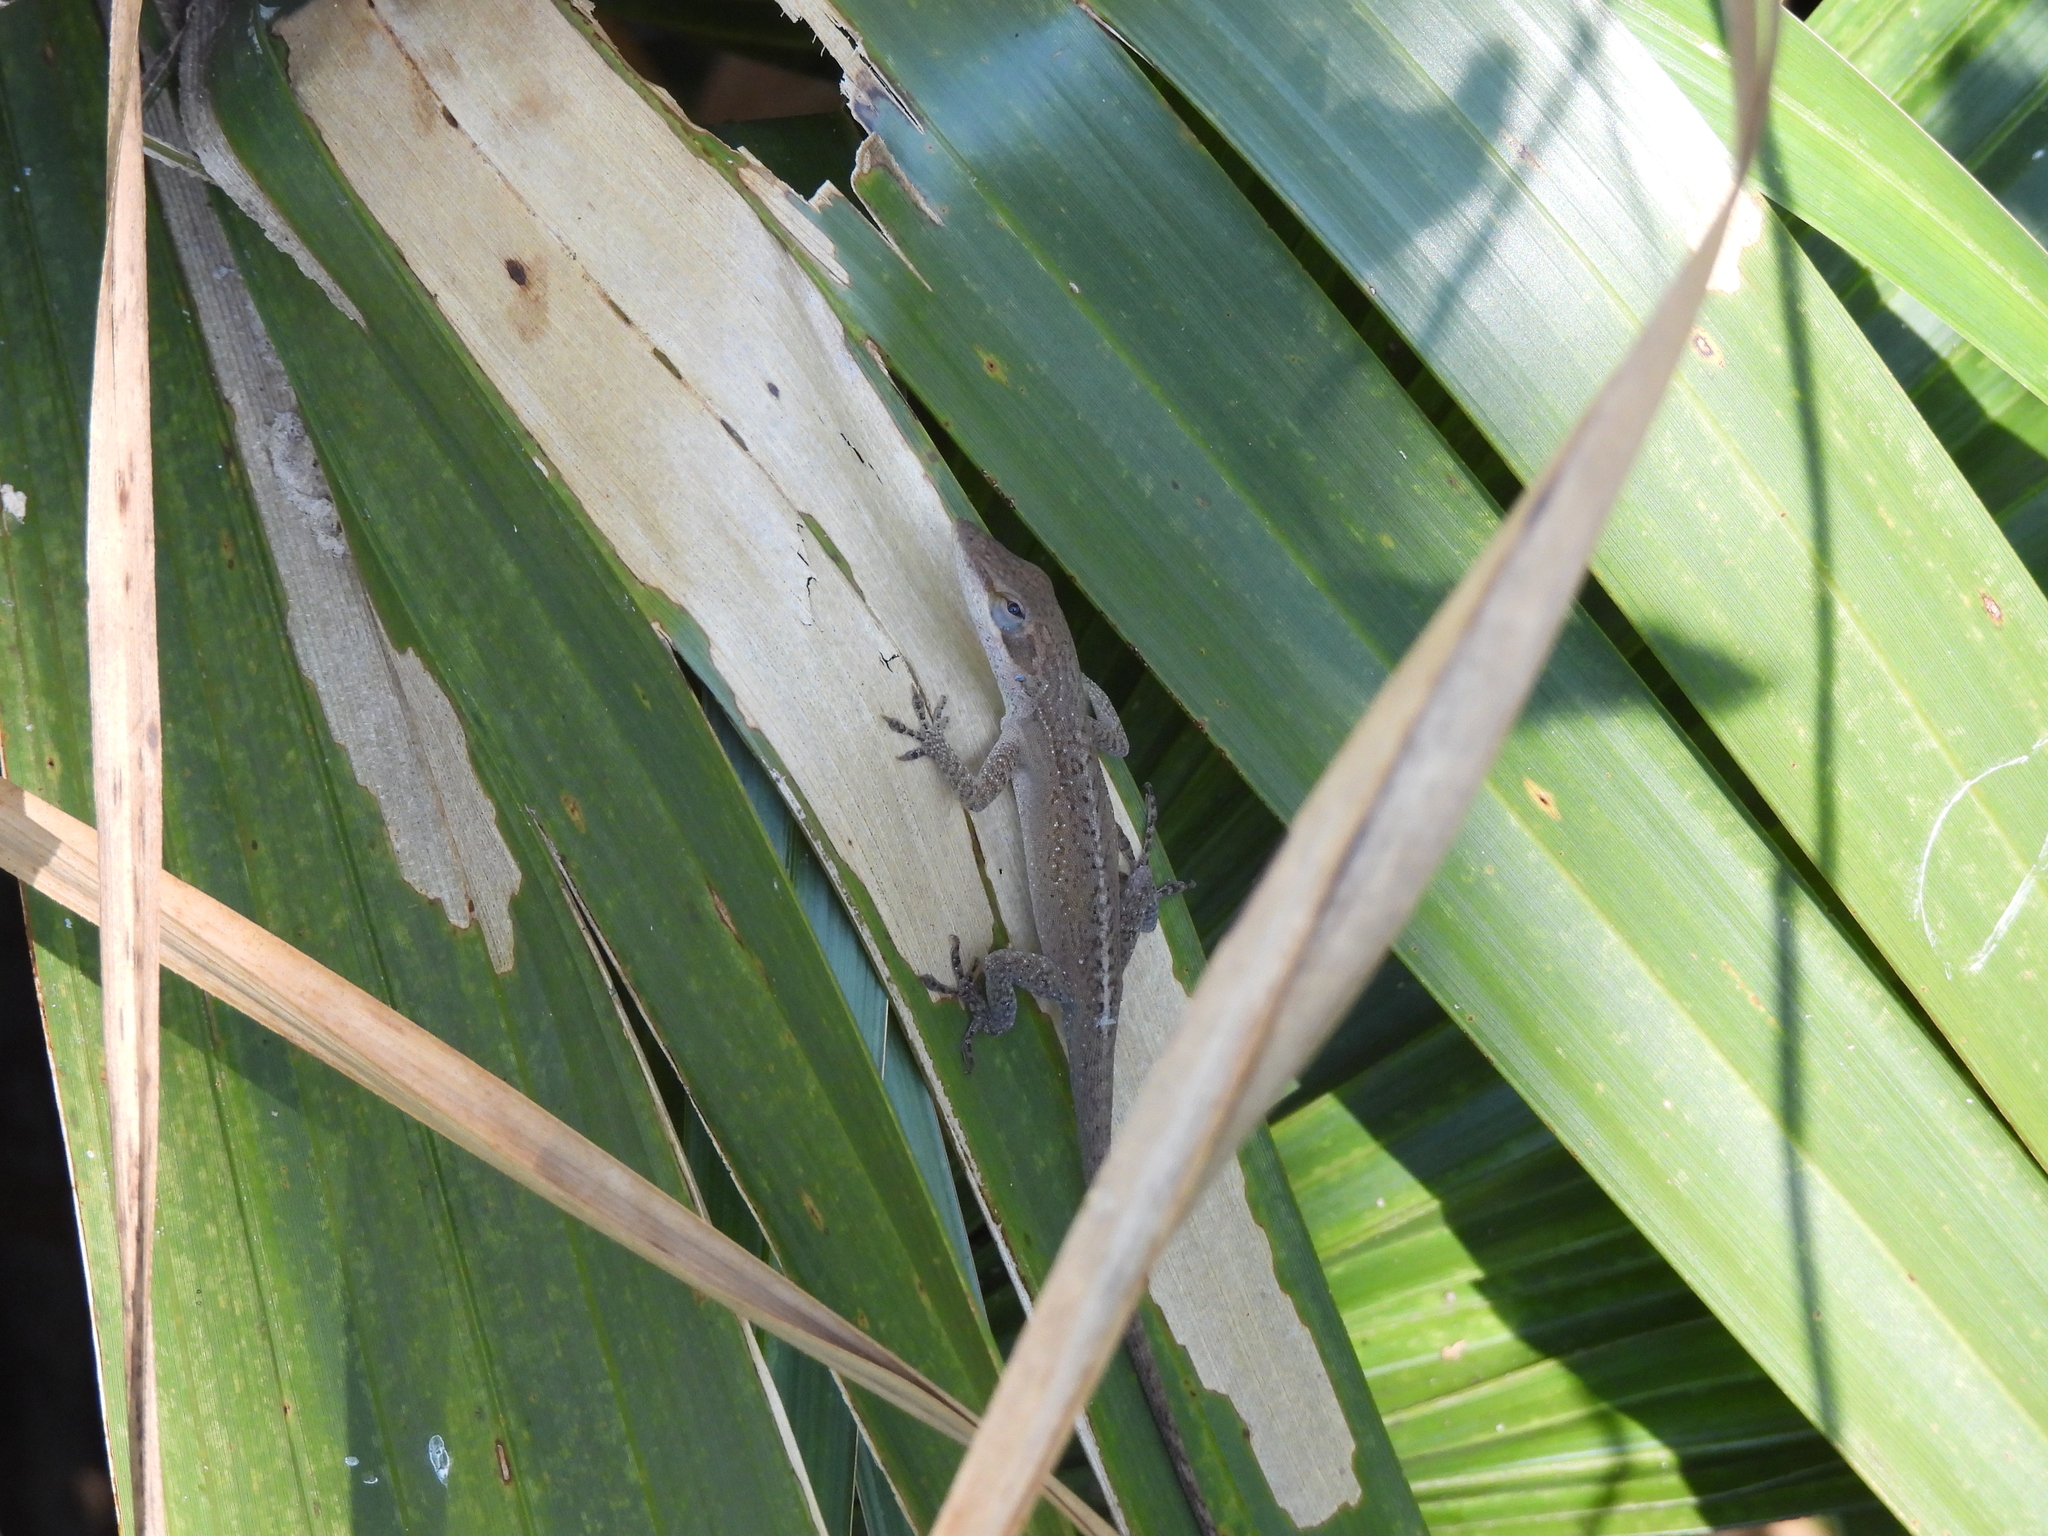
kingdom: Animalia
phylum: Chordata
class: Squamata
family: Dactyloidae
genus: Anolis
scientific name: Anolis carolinensis
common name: Green anole
